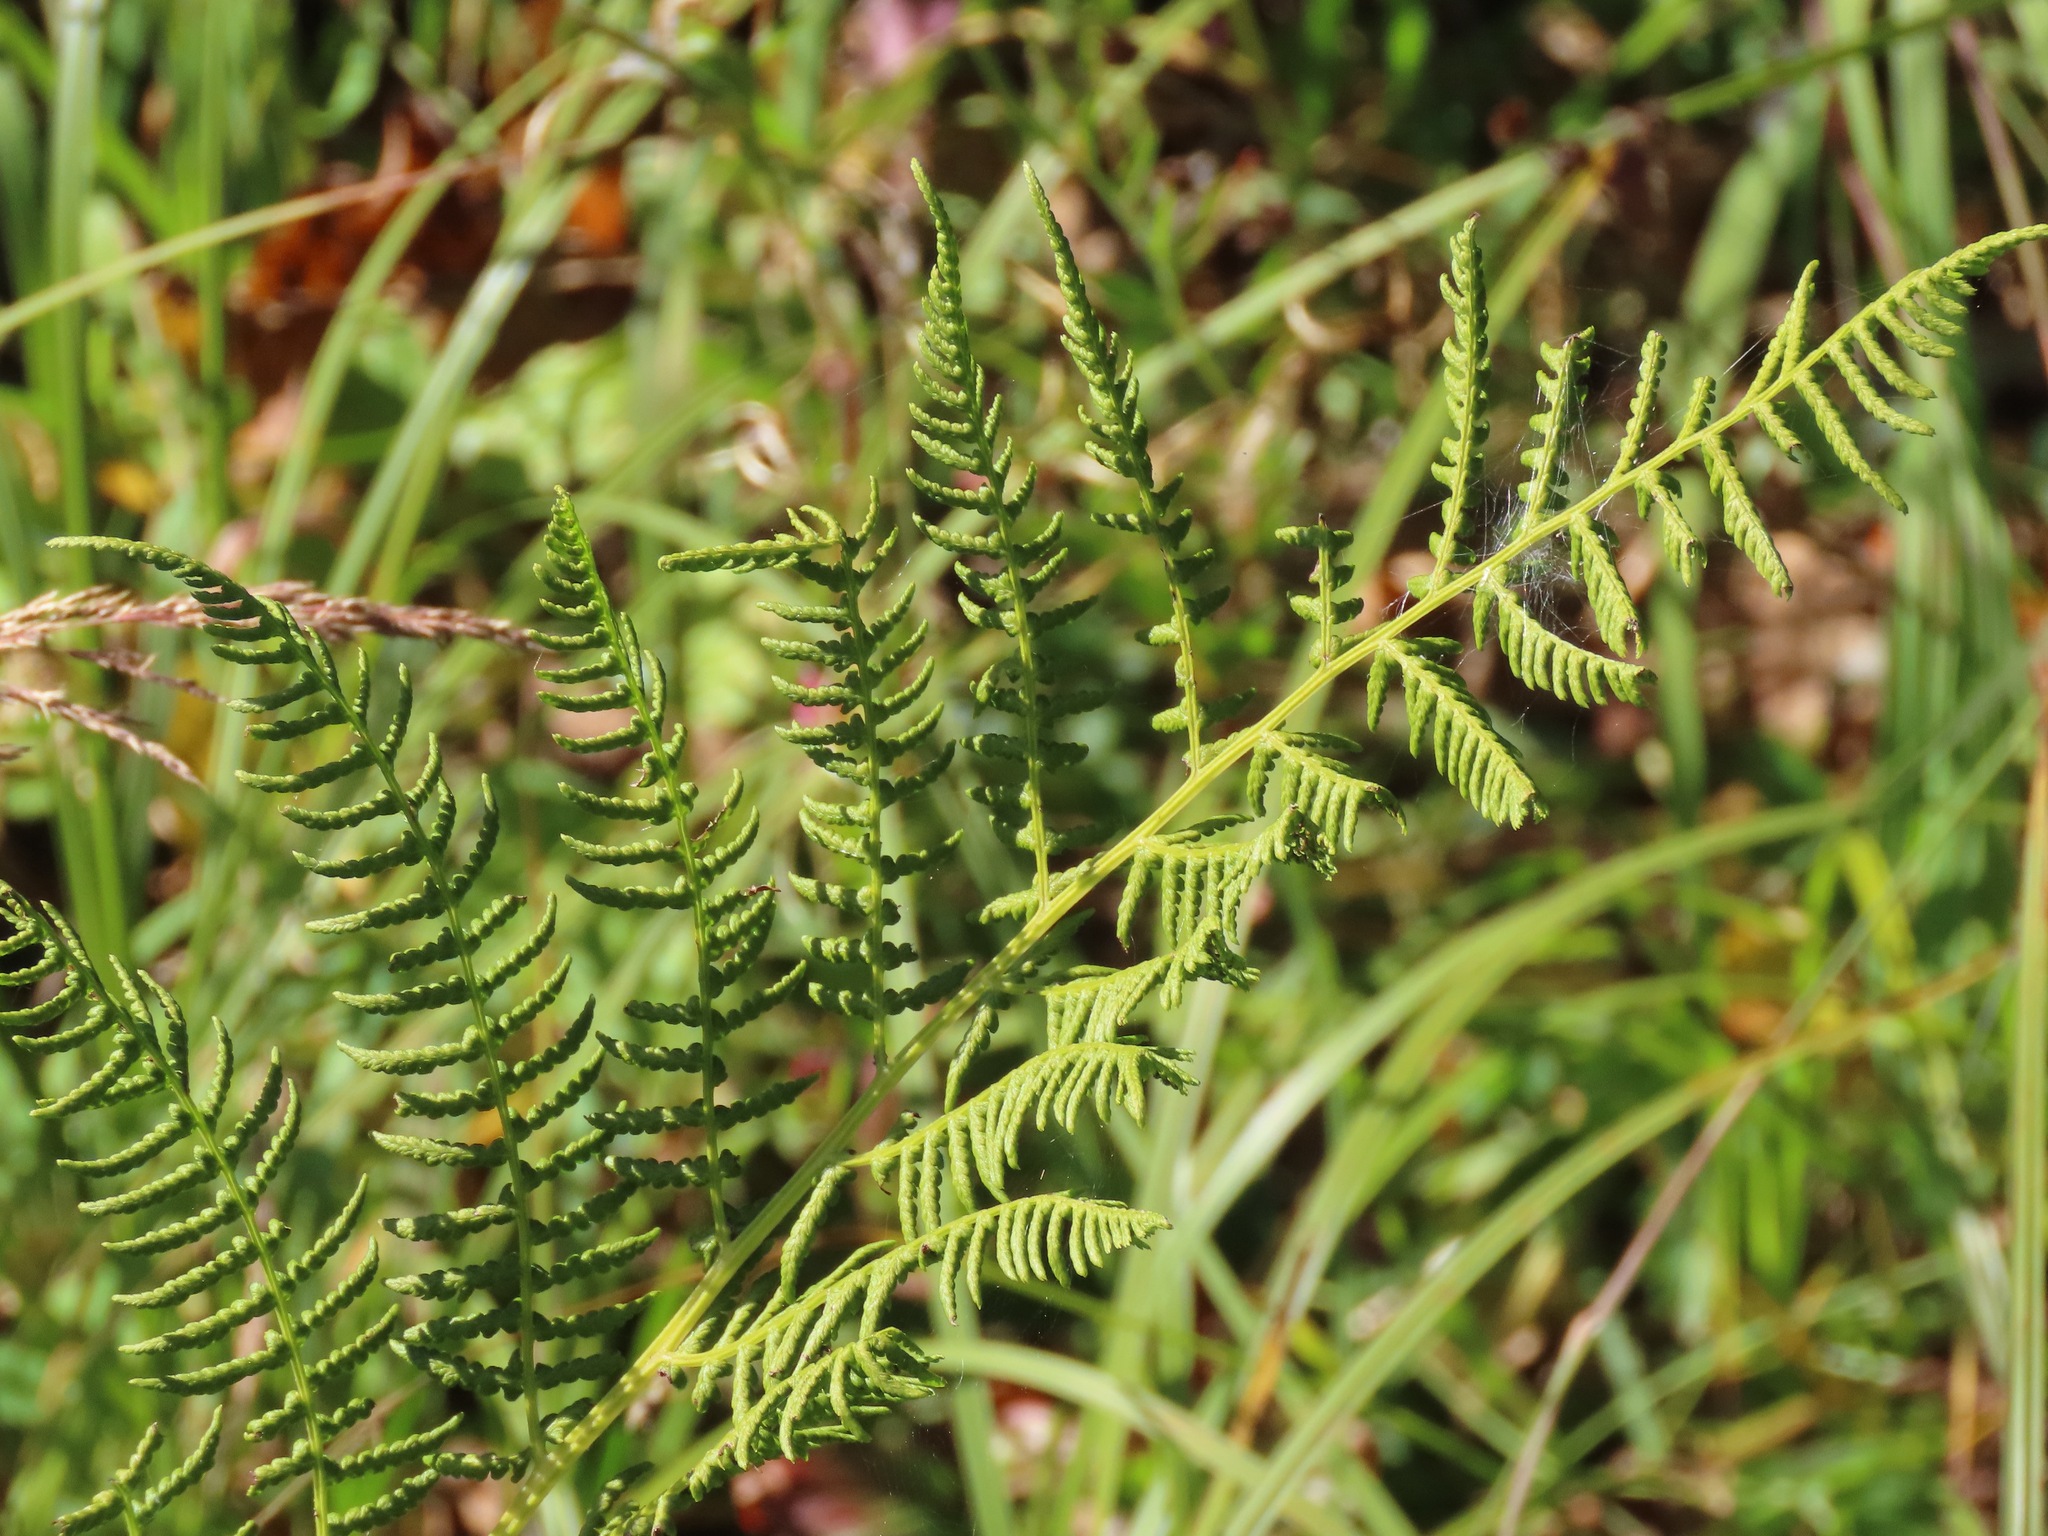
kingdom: Plantae
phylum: Tracheophyta
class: Polypodiopsida
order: Polypodiales
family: Athyriaceae
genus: Athyrium
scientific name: Athyrium filix-femina
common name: Lady fern
